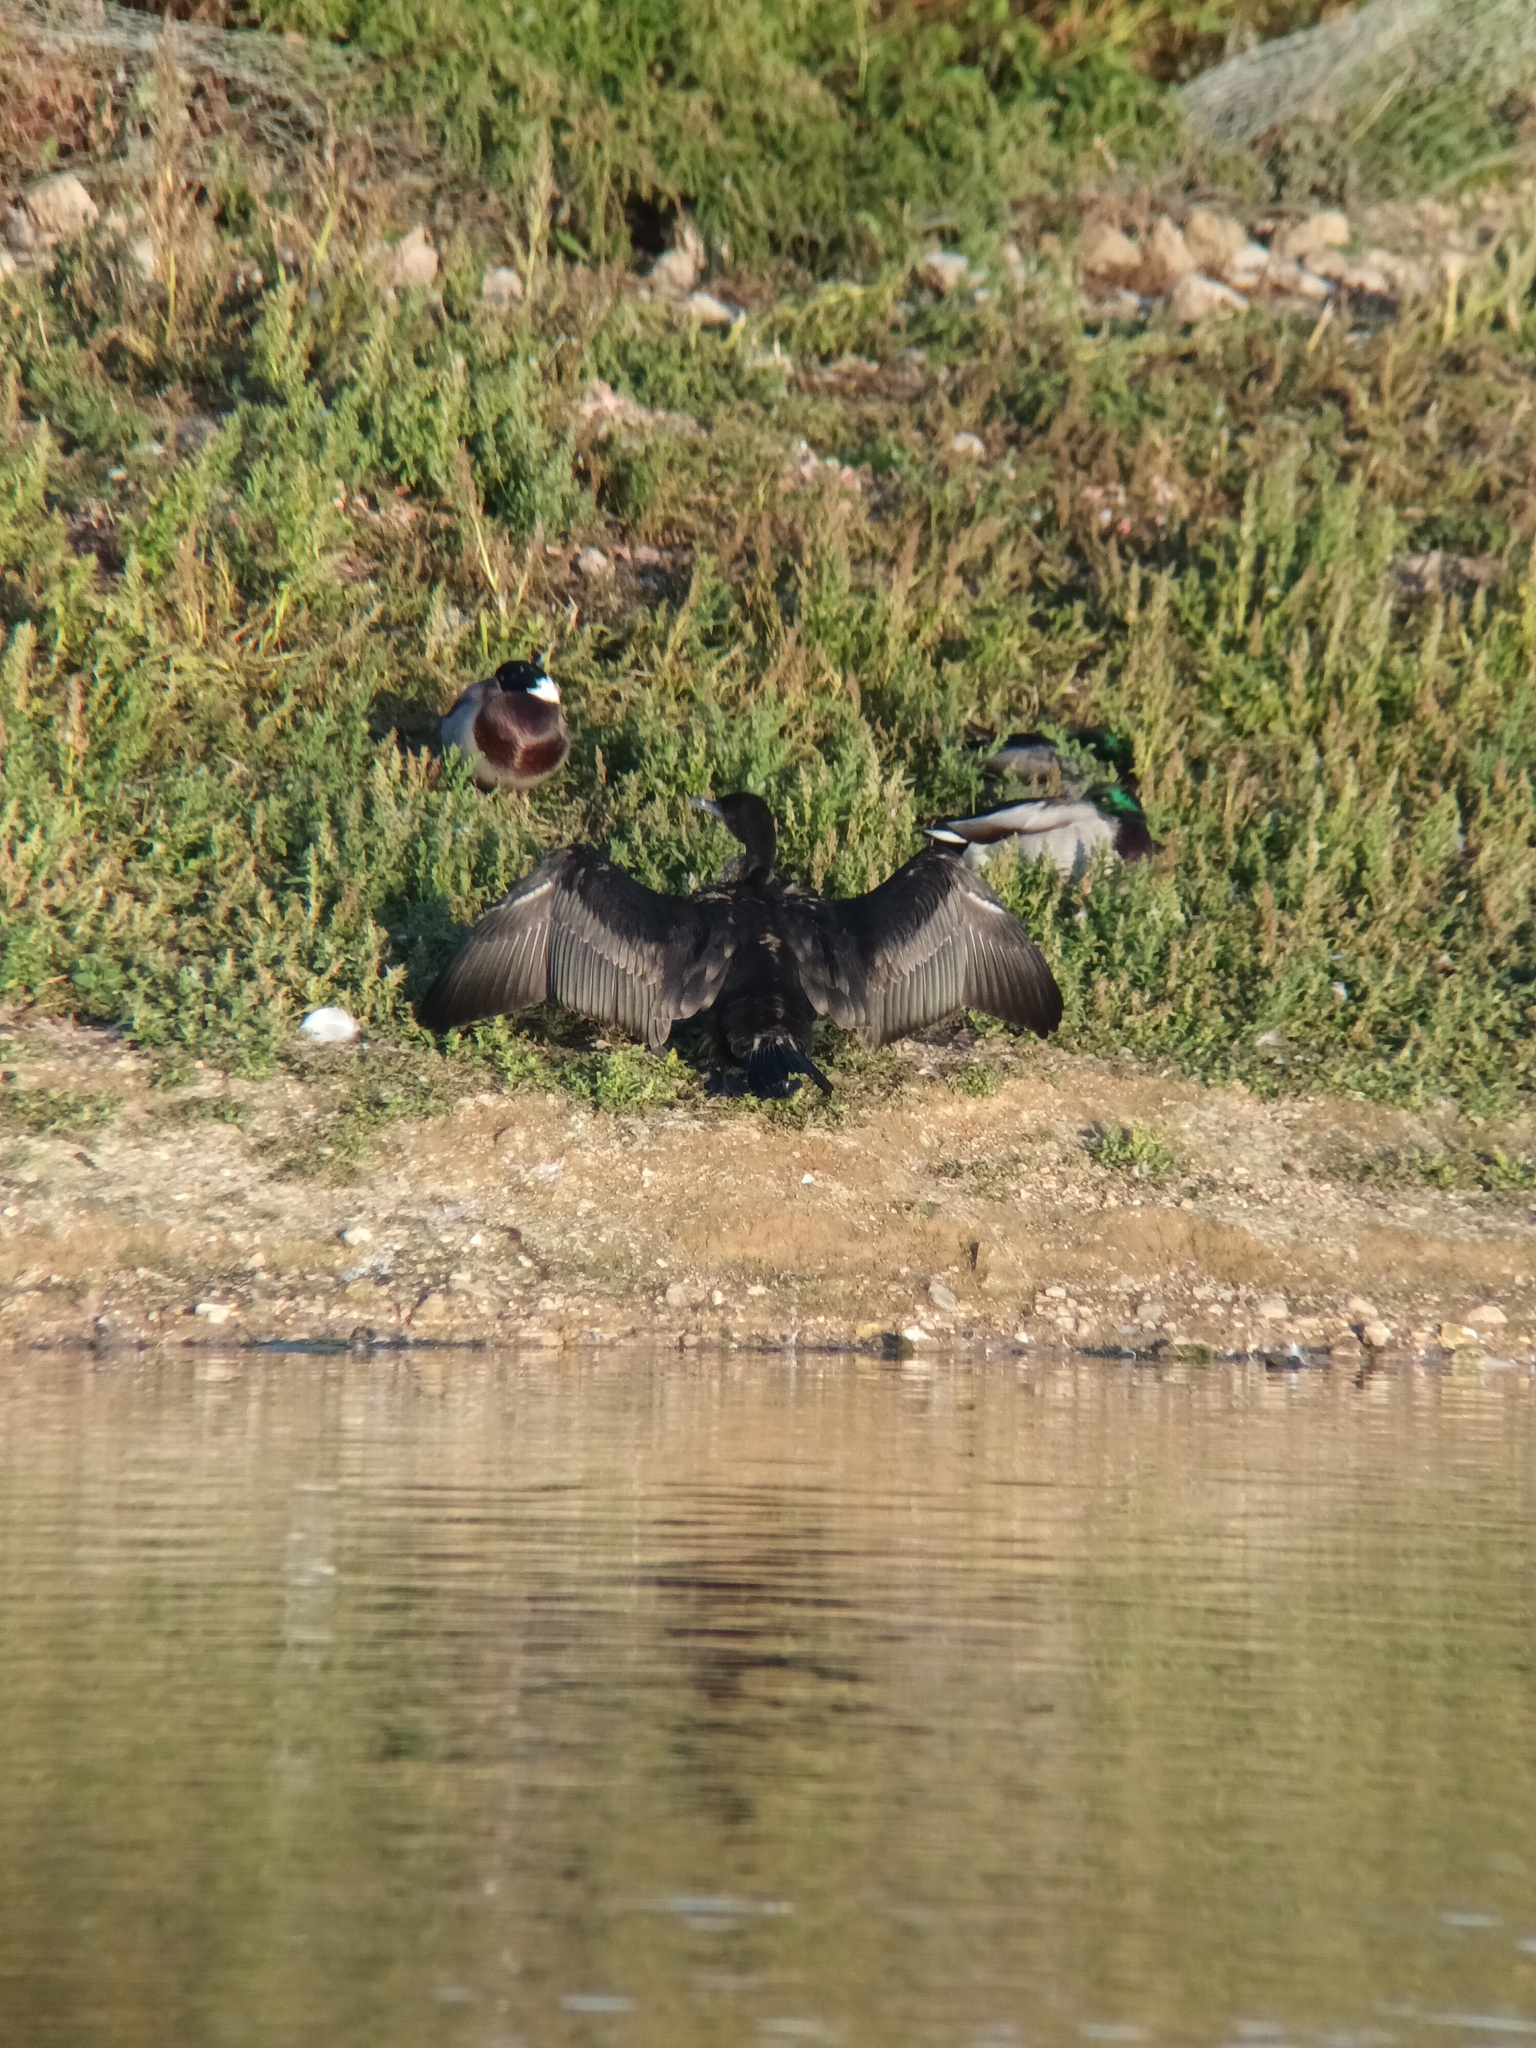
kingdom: Animalia
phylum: Chordata
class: Aves
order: Suliformes
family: Phalacrocoracidae
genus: Phalacrocorax
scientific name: Phalacrocorax carbo
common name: Great cormorant
